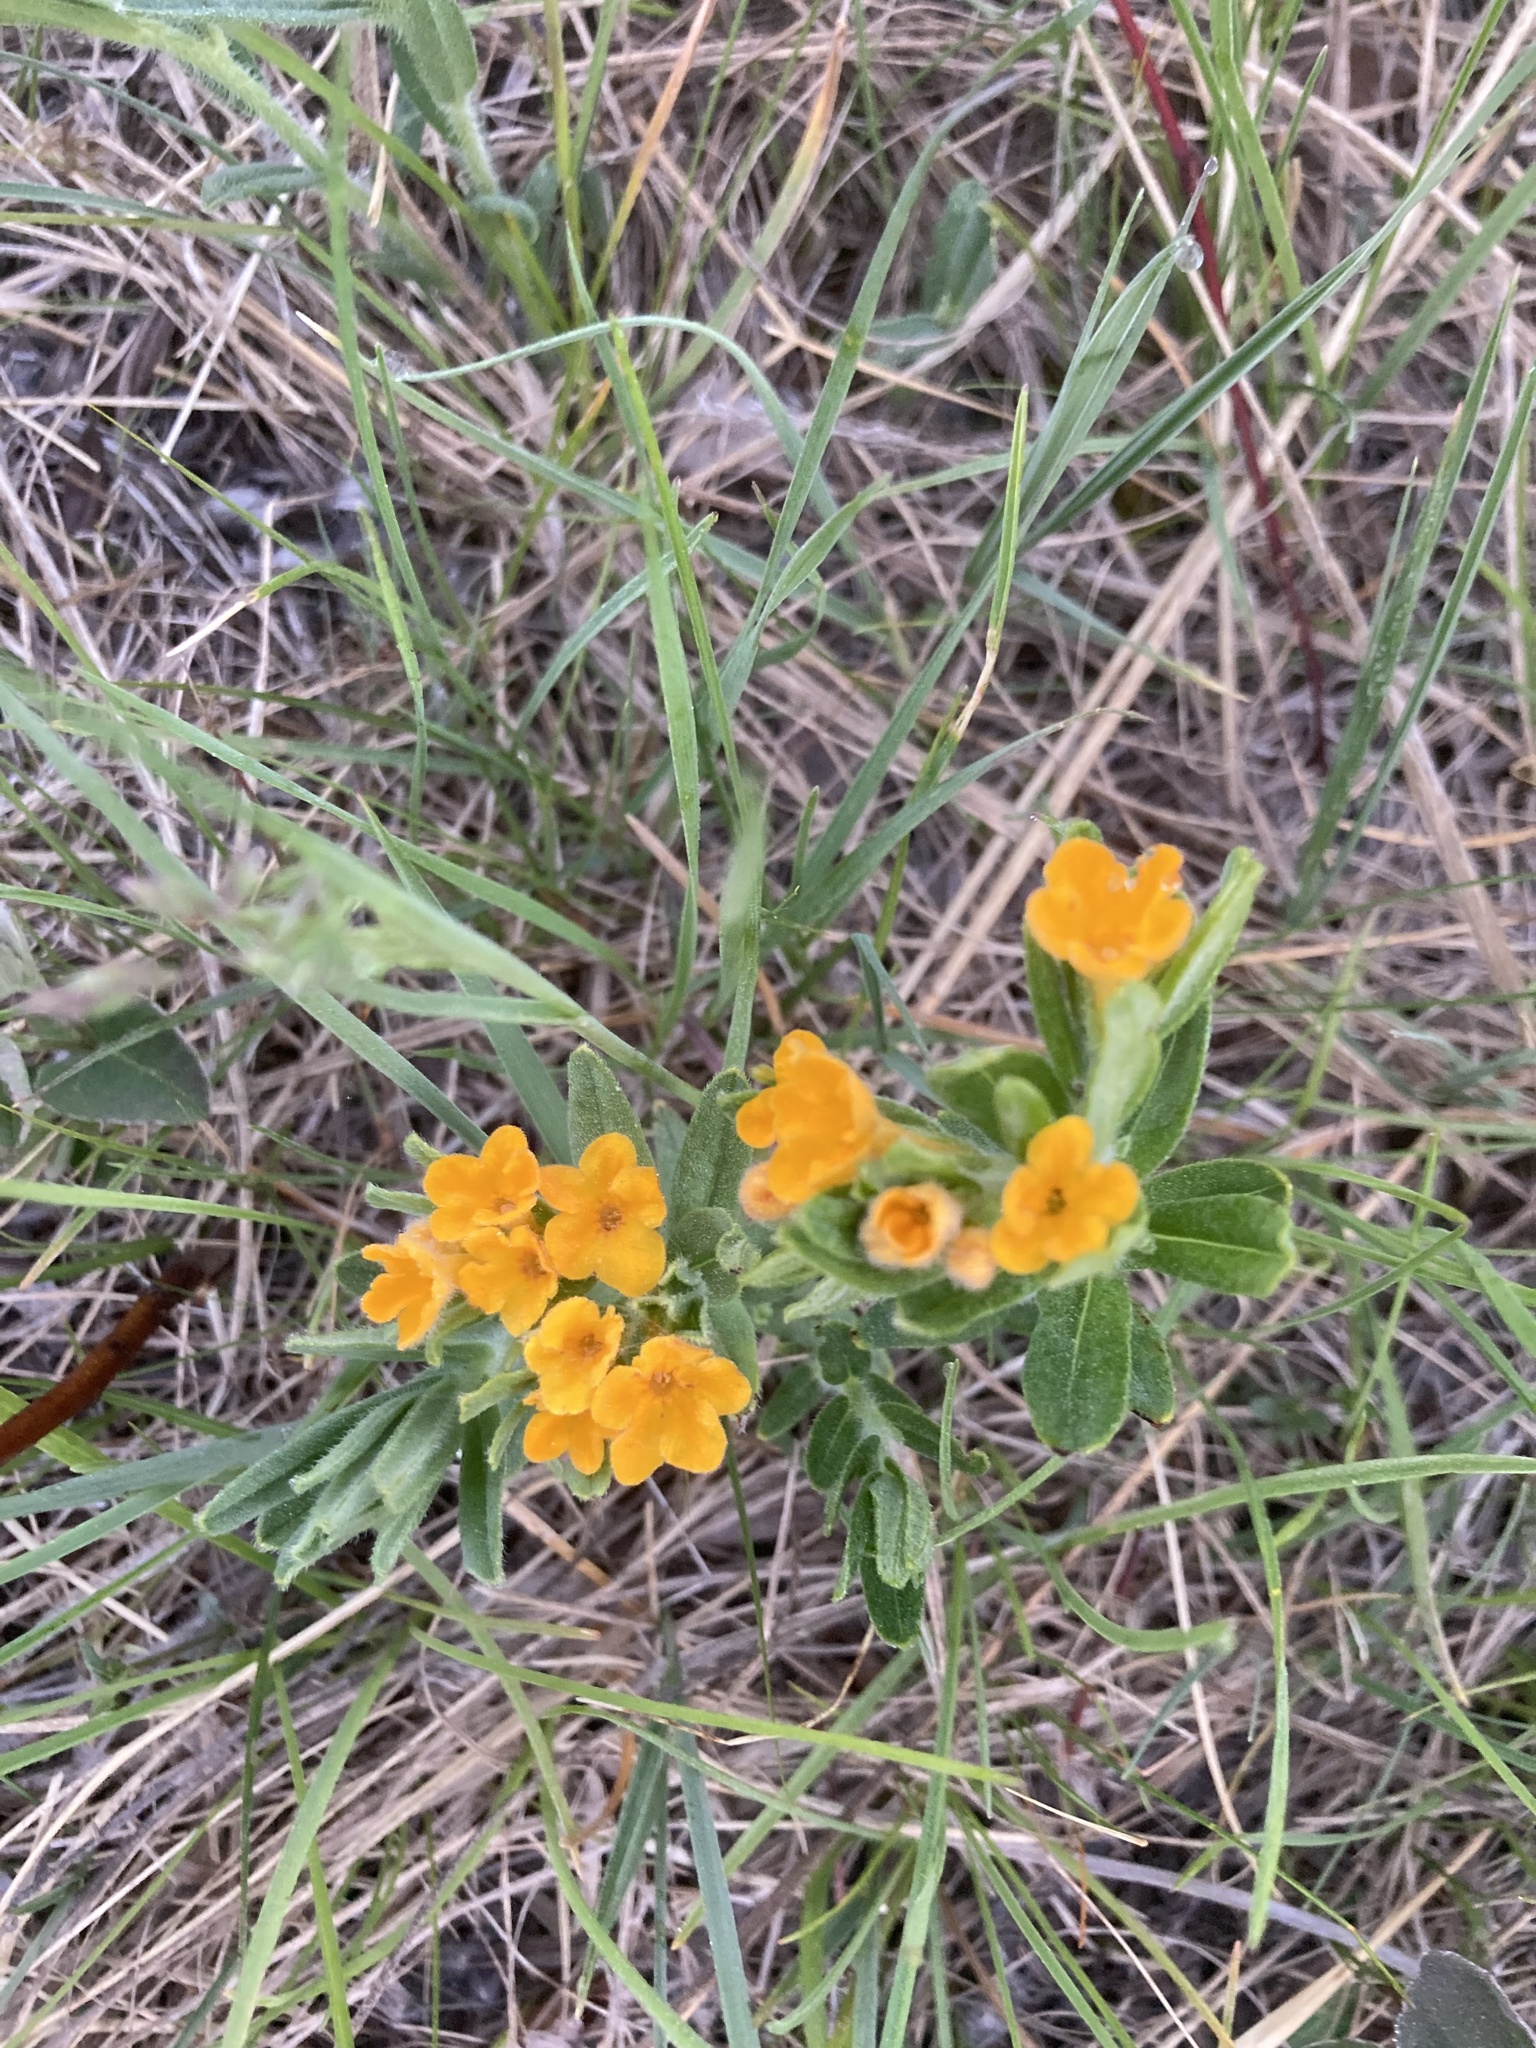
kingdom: Plantae
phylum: Tracheophyta
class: Magnoliopsida
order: Boraginales
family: Boraginaceae
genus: Lithospermum
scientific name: Lithospermum canescens
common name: Hoary puccoon
